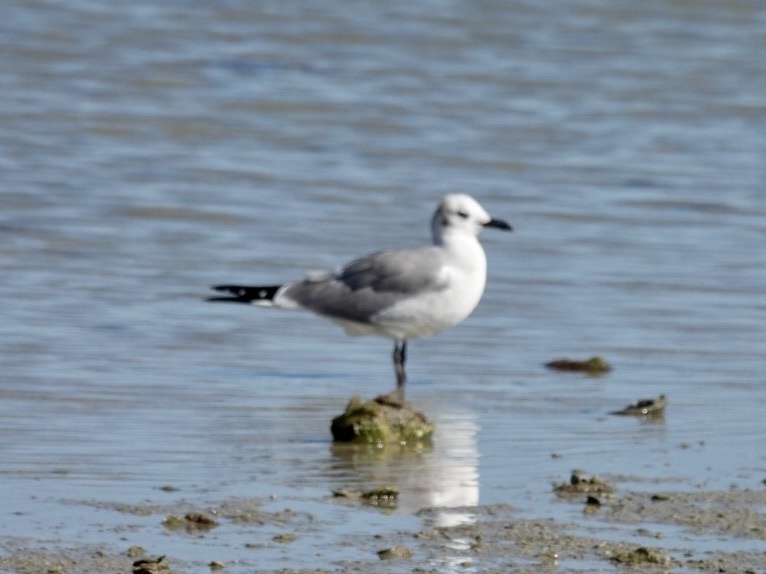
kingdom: Animalia
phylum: Chordata
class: Aves
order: Charadriiformes
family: Laridae
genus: Leucophaeus
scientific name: Leucophaeus atricilla
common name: Laughing gull
